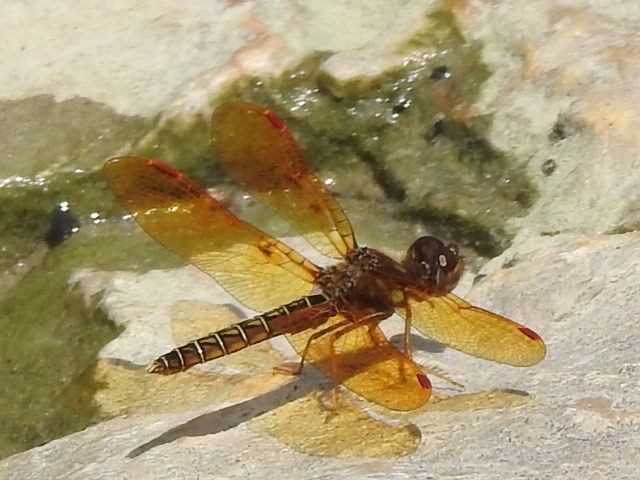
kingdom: Animalia
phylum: Arthropoda
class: Insecta
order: Odonata
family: Libellulidae
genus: Perithemis
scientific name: Perithemis tenera
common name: Eastern amberwing
